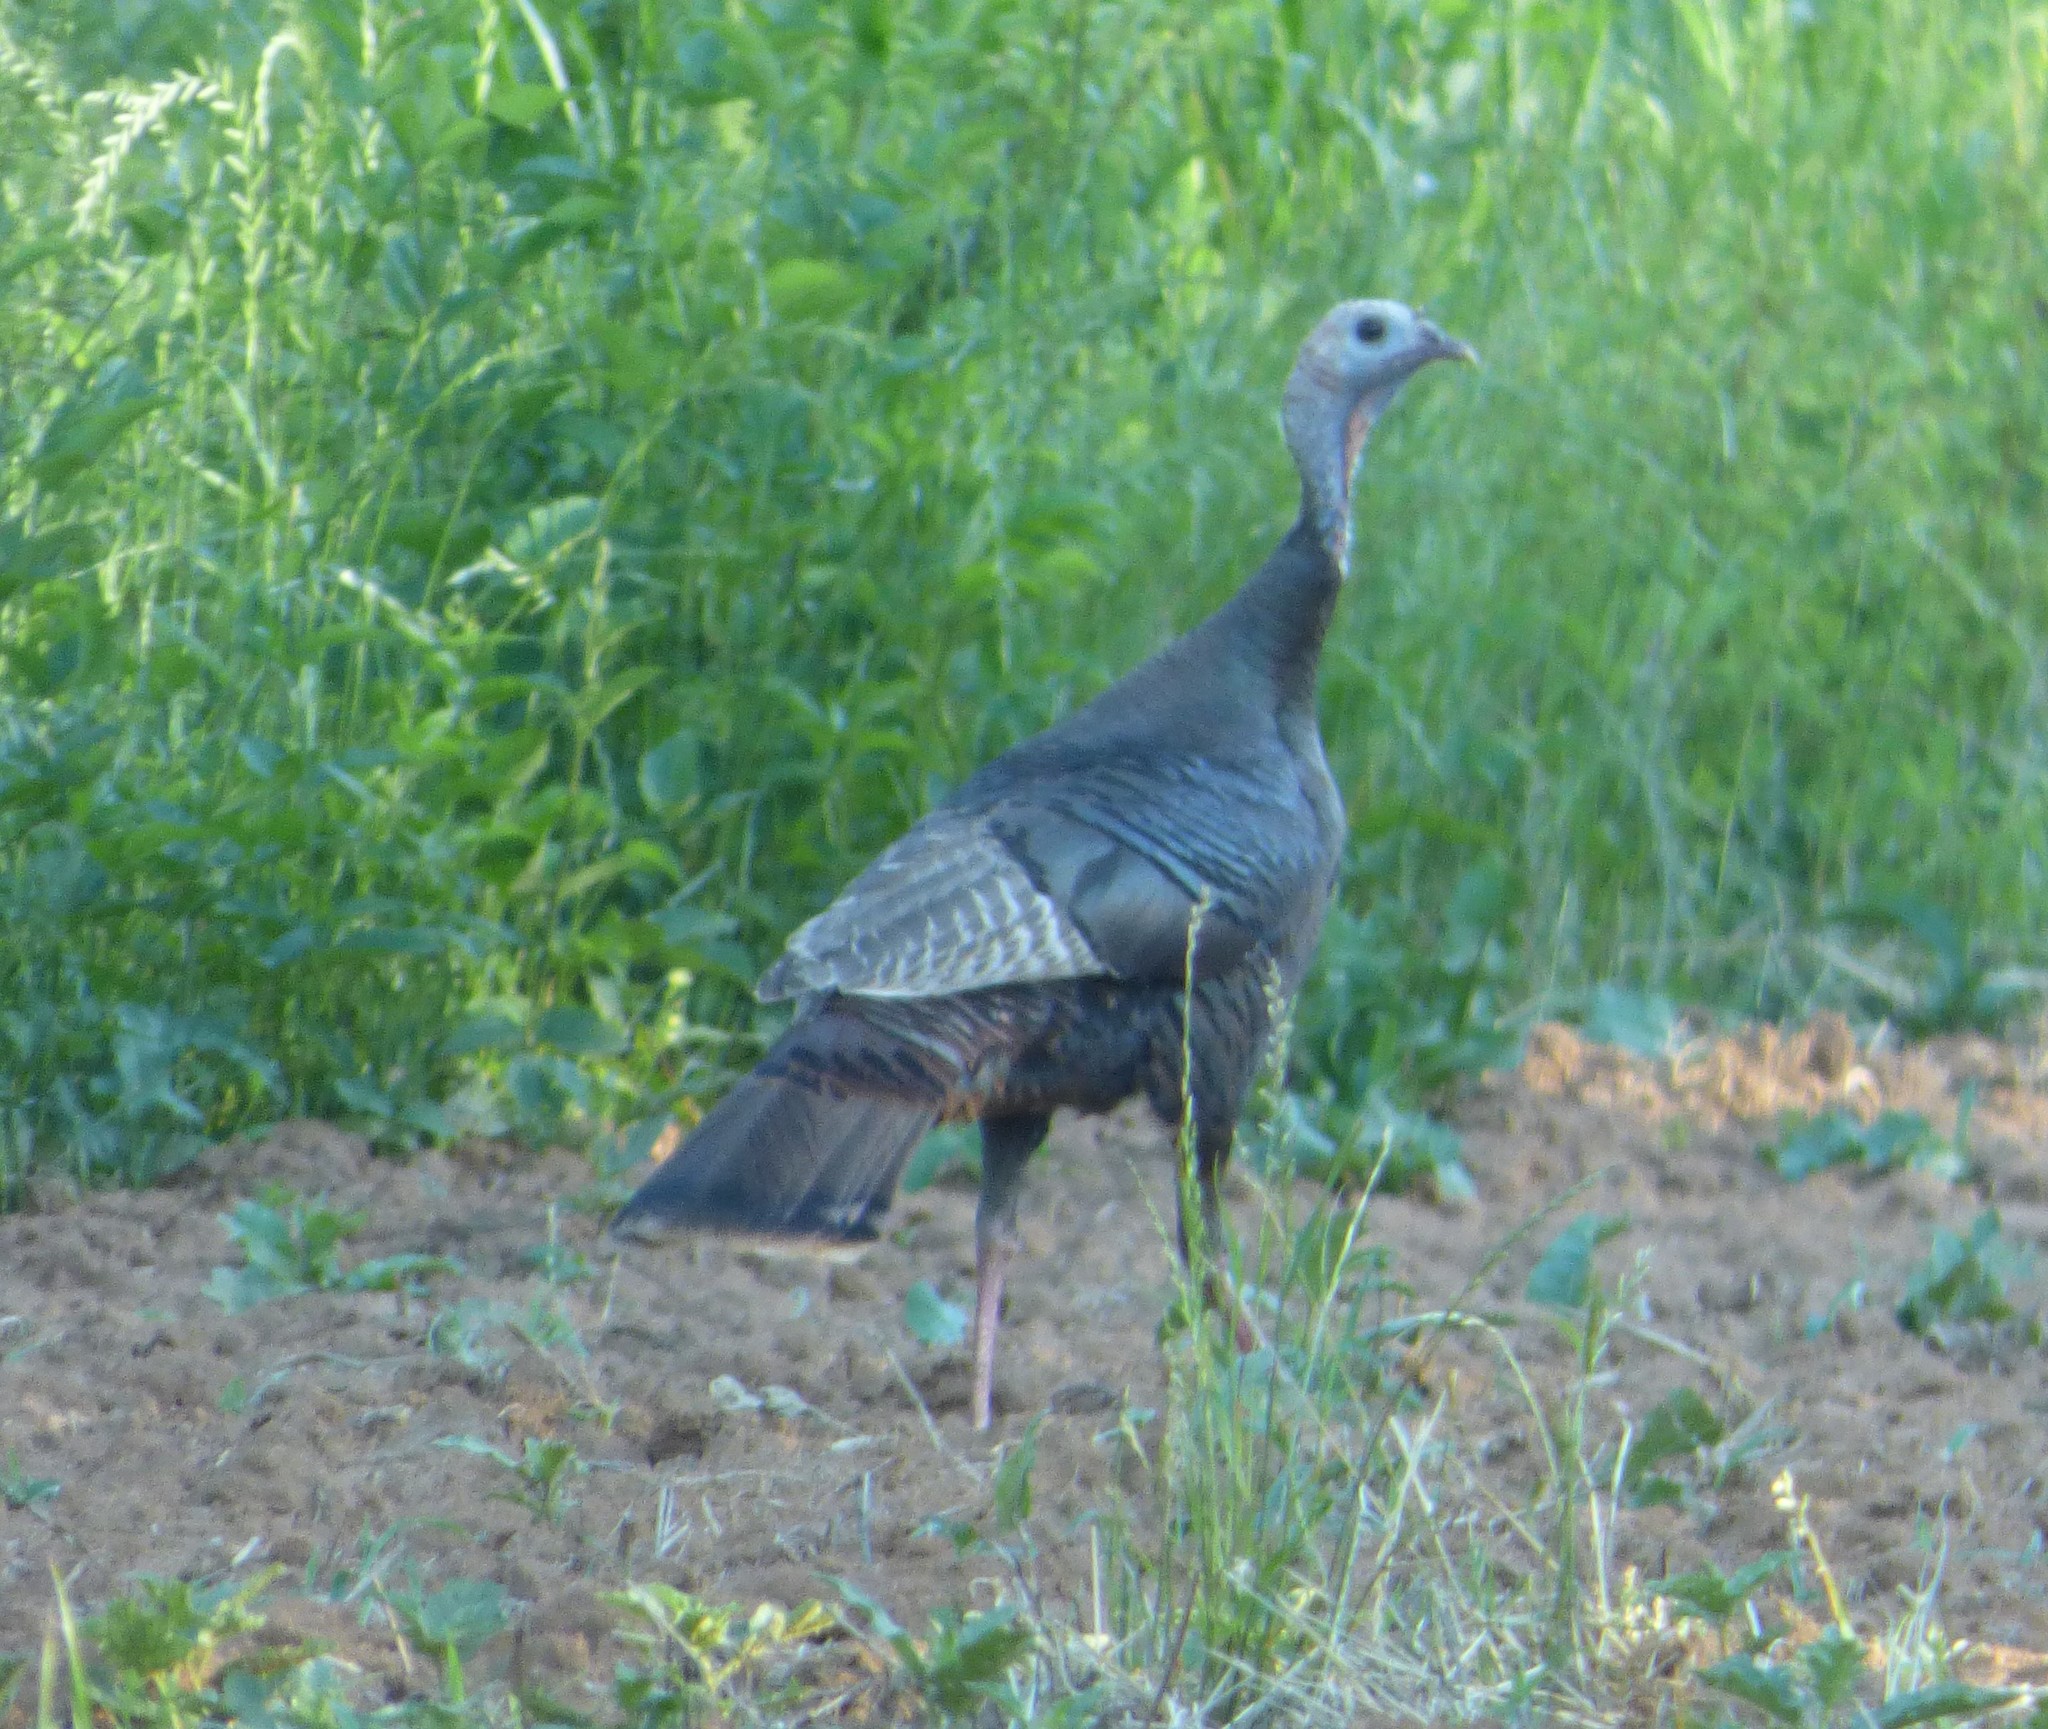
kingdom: Animalia
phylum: Chordata
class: Aves
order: Galliformes
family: Phasianidae
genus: Meleagris
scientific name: Meleagris gallopavo
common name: Wild turkey
